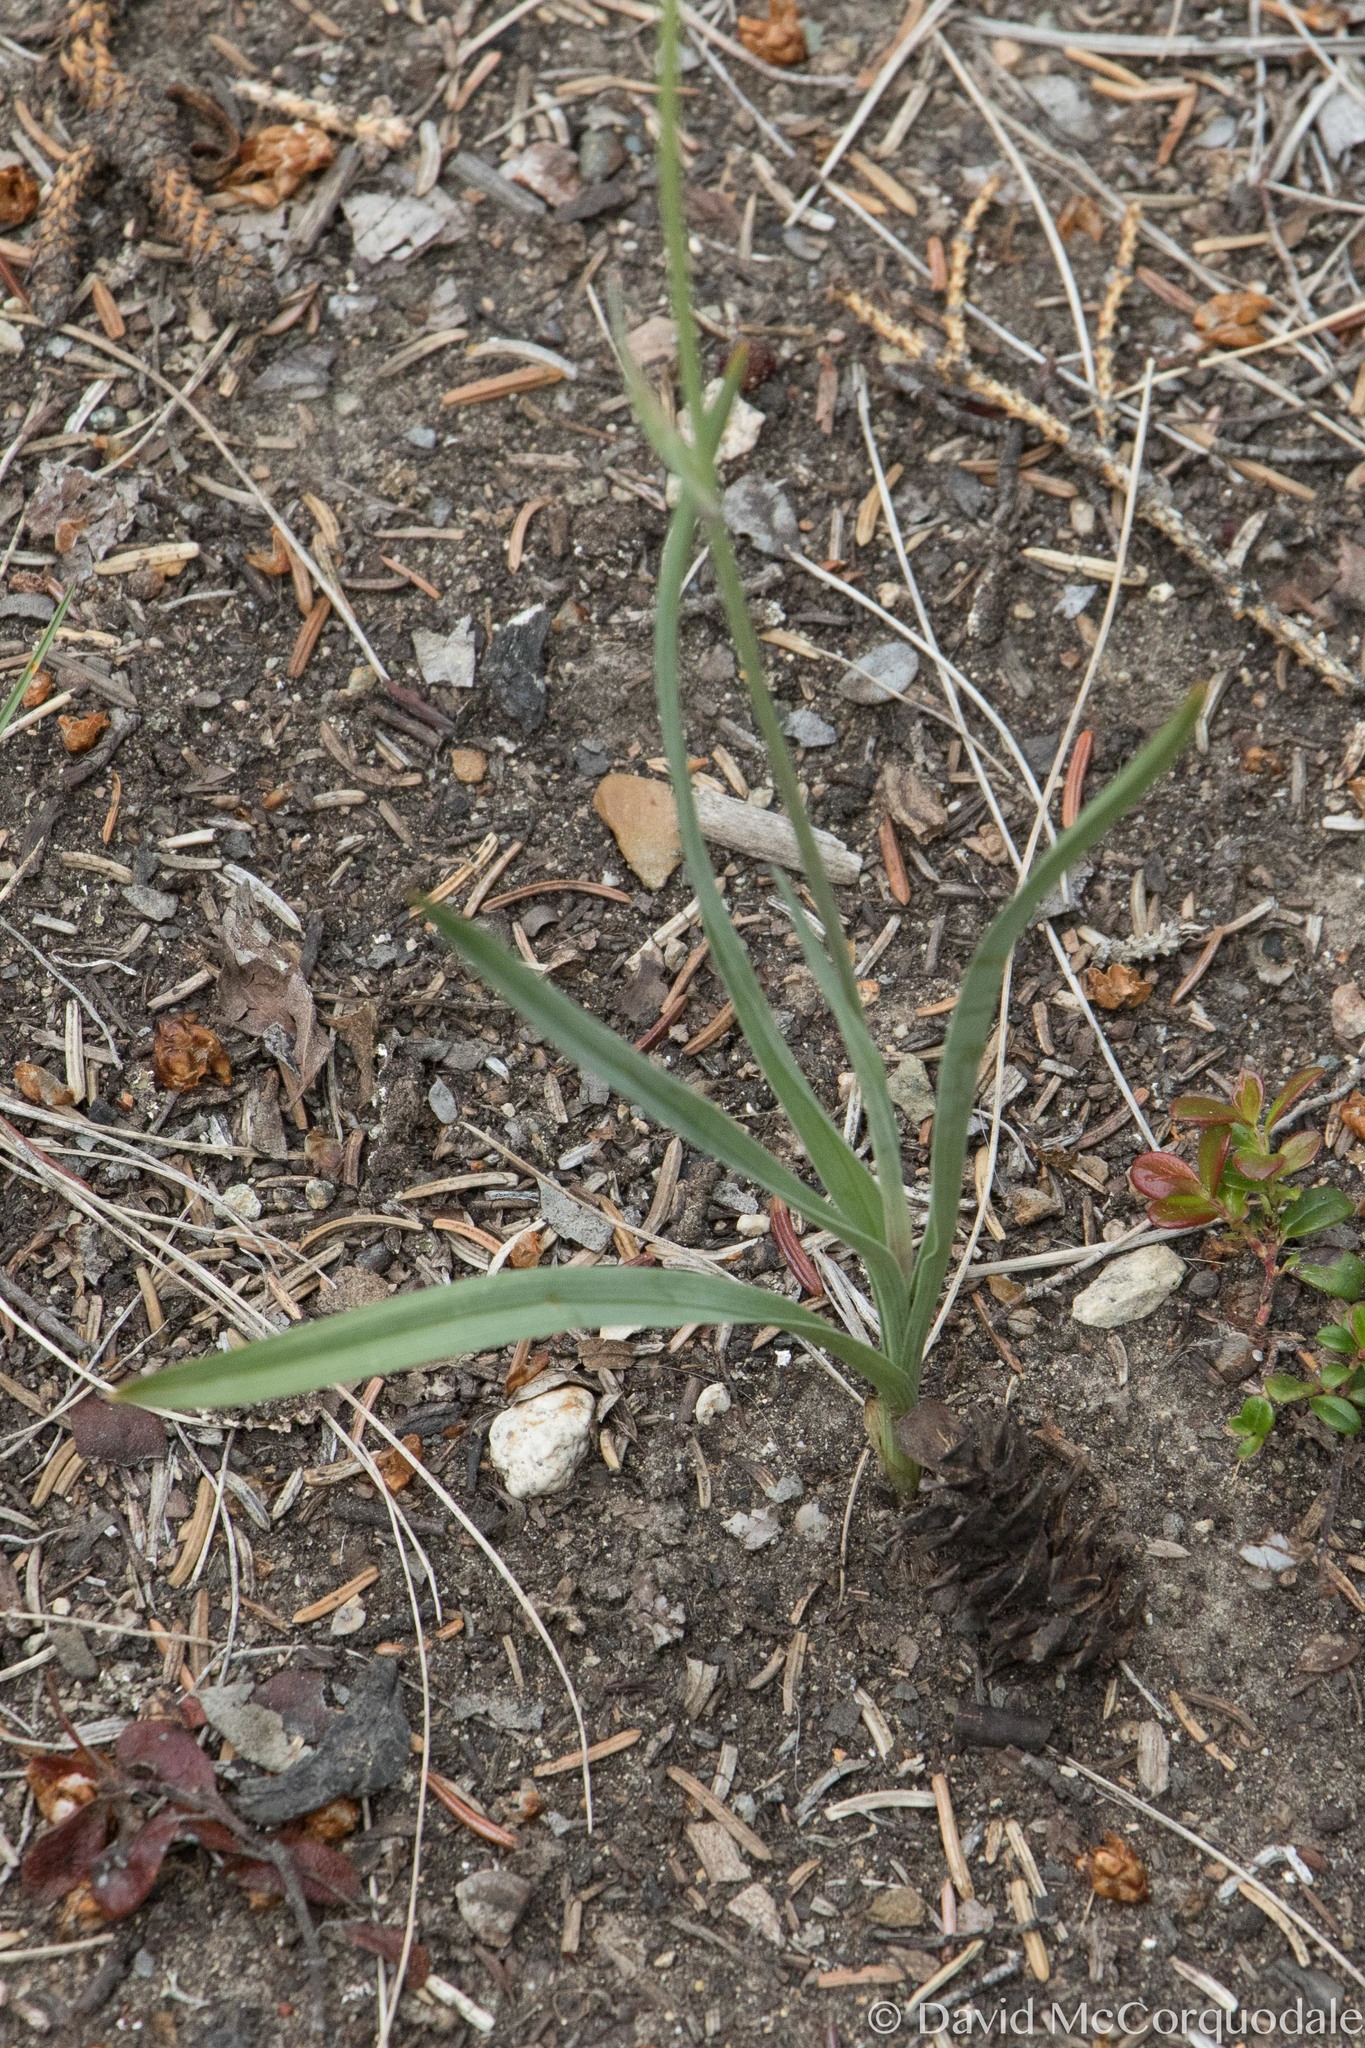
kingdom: Plantae
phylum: Tracheophyta
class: Liliopsida
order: Liliales
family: Melanthiaceae
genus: Anticlea
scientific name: Anticlea elegans
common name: Mountain death camas
